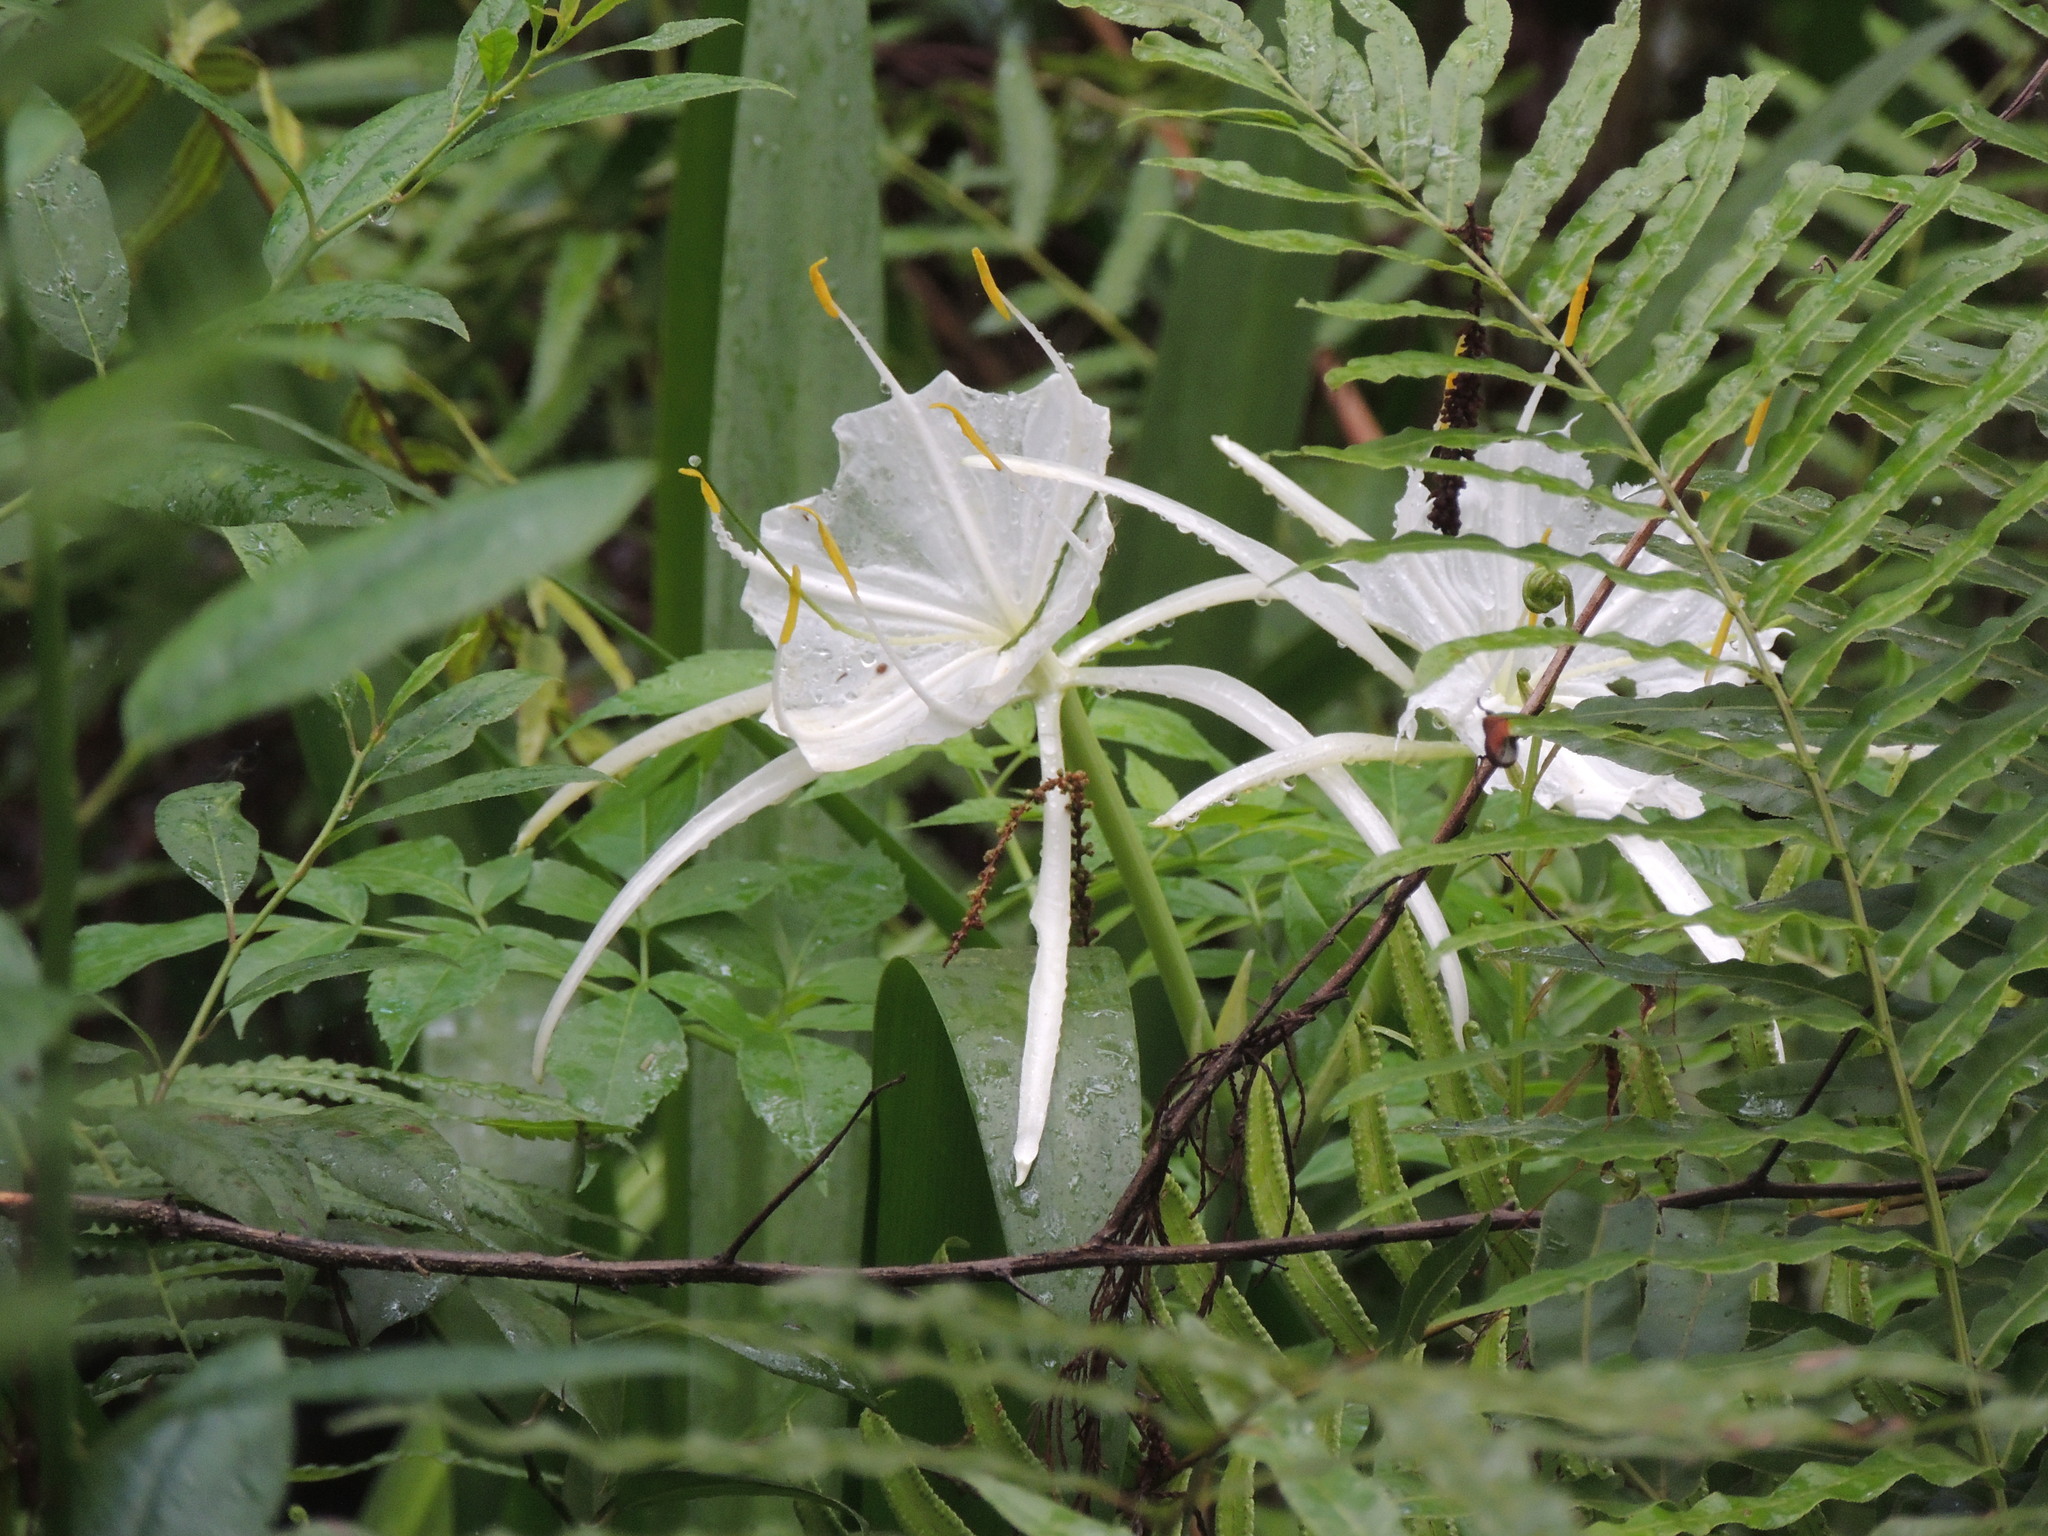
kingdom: Plantae
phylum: Tracheophyta
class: Liliopsida
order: Asparagales
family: Amaryllidaceae
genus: Hymenocallis
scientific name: Hymenocallis tridentata
